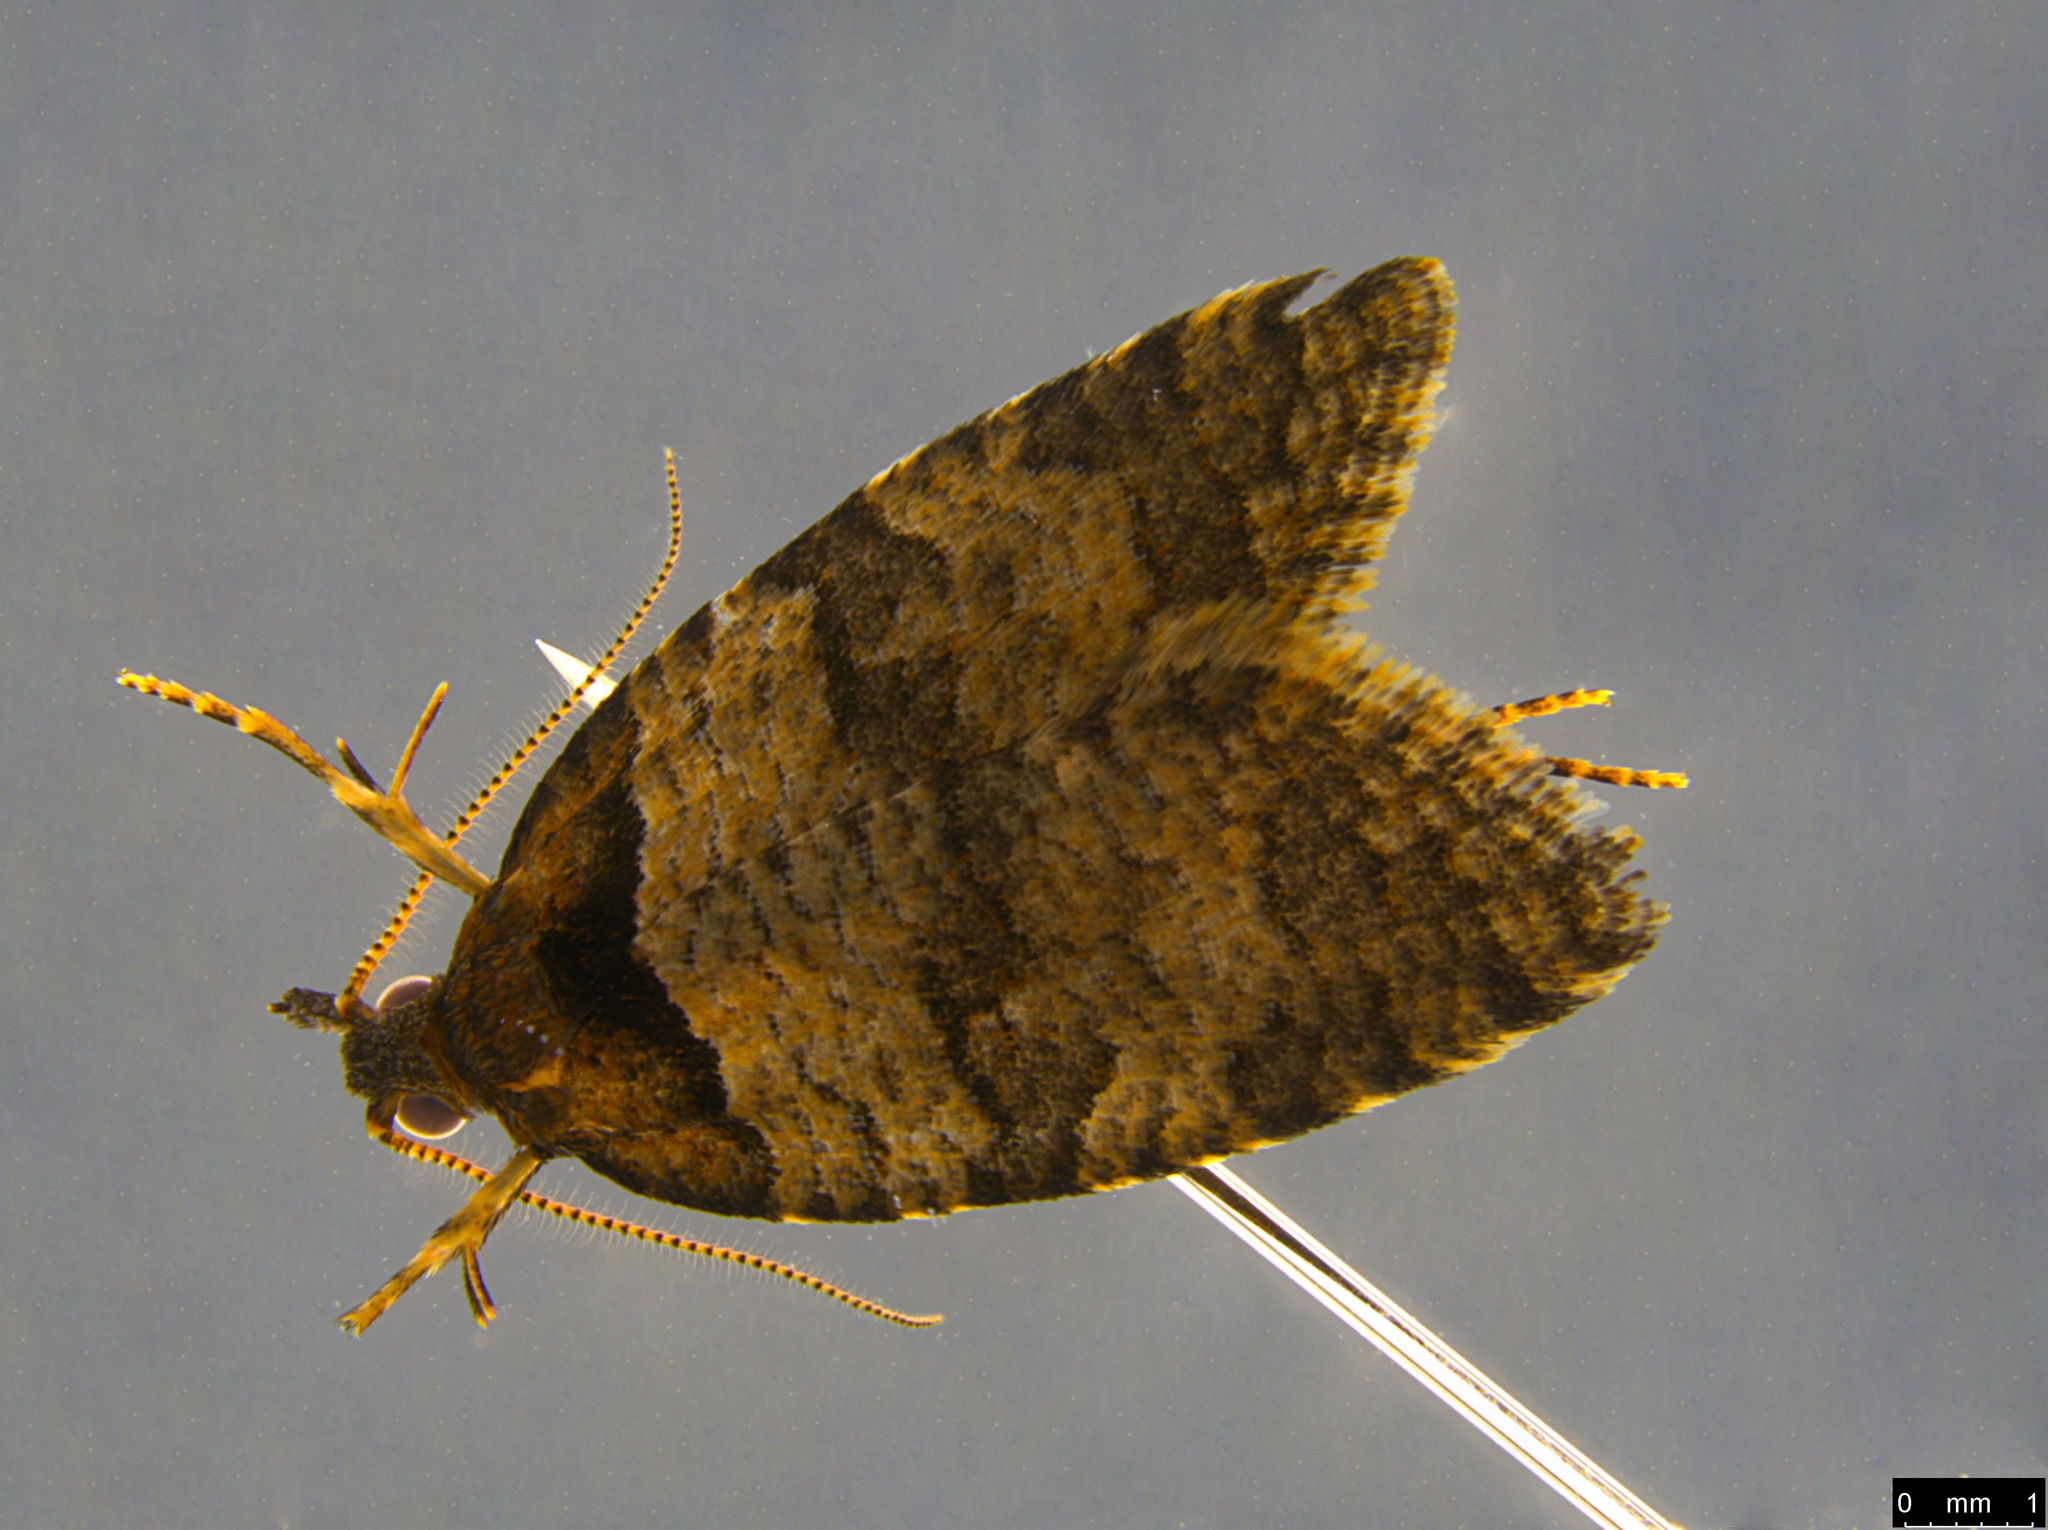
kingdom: Animalia
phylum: Arthropoda
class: Insecta
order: Lepidoptera
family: Tortricidae
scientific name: Tortricidae
